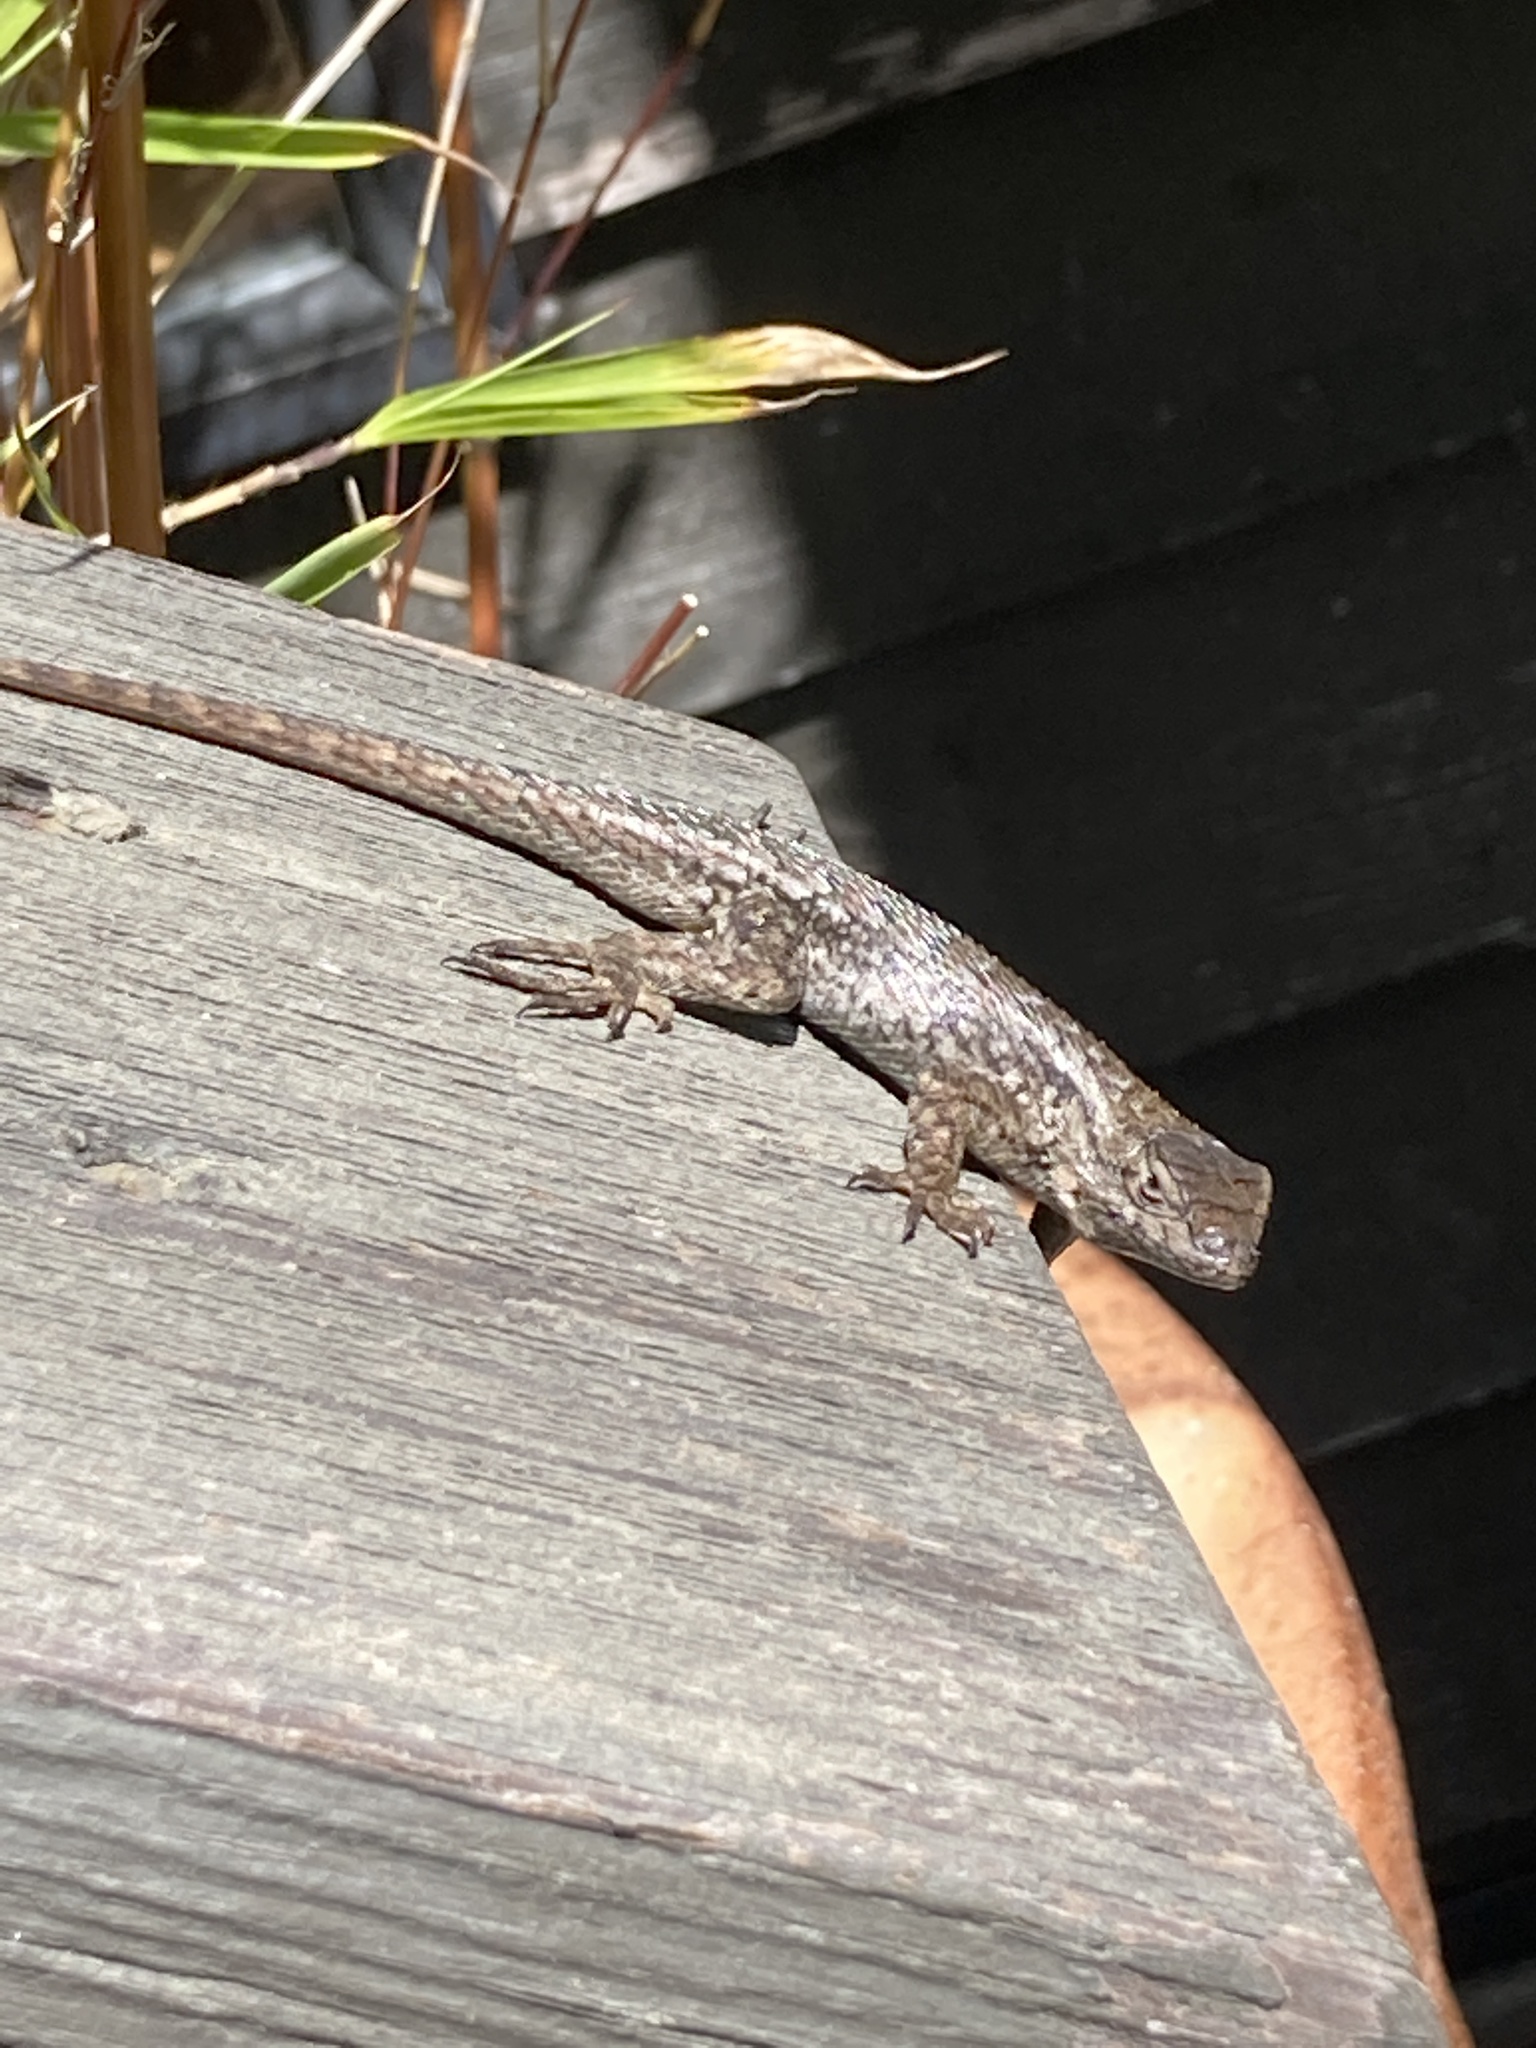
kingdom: Animalia
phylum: Chordata
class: Squamata
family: Phrynosomatidae
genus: Sceloporus
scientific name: Sceloporus occidentalis
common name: Western fence lizard
